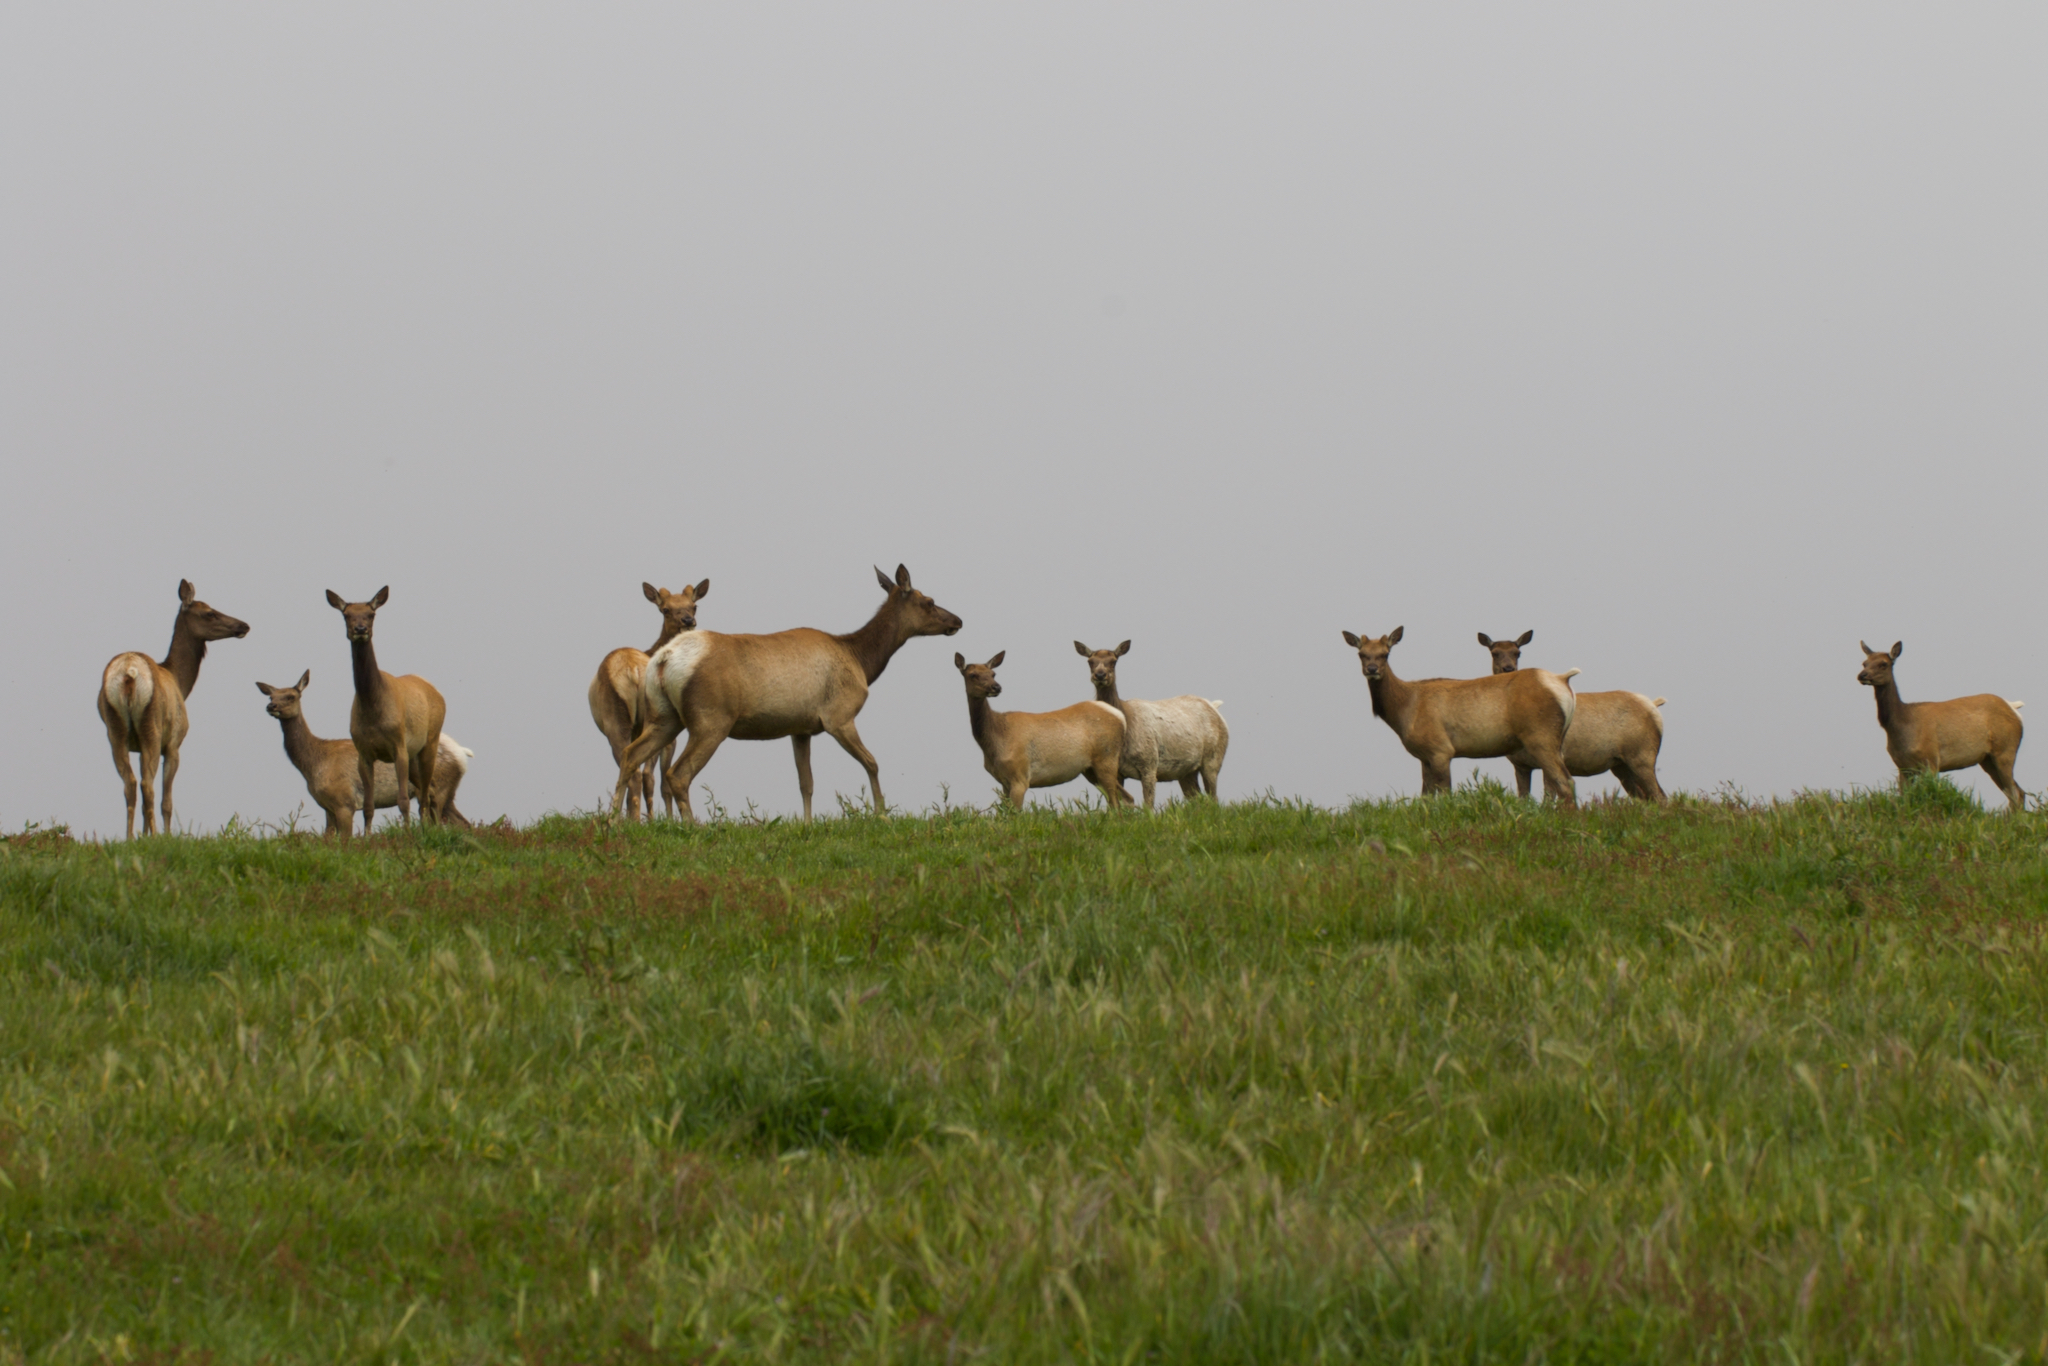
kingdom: Animalia
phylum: Chordata
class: Mammalia
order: Artiodactyla
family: Cervidae
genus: Cervus
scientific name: Cervus elaphus
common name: Red deer
